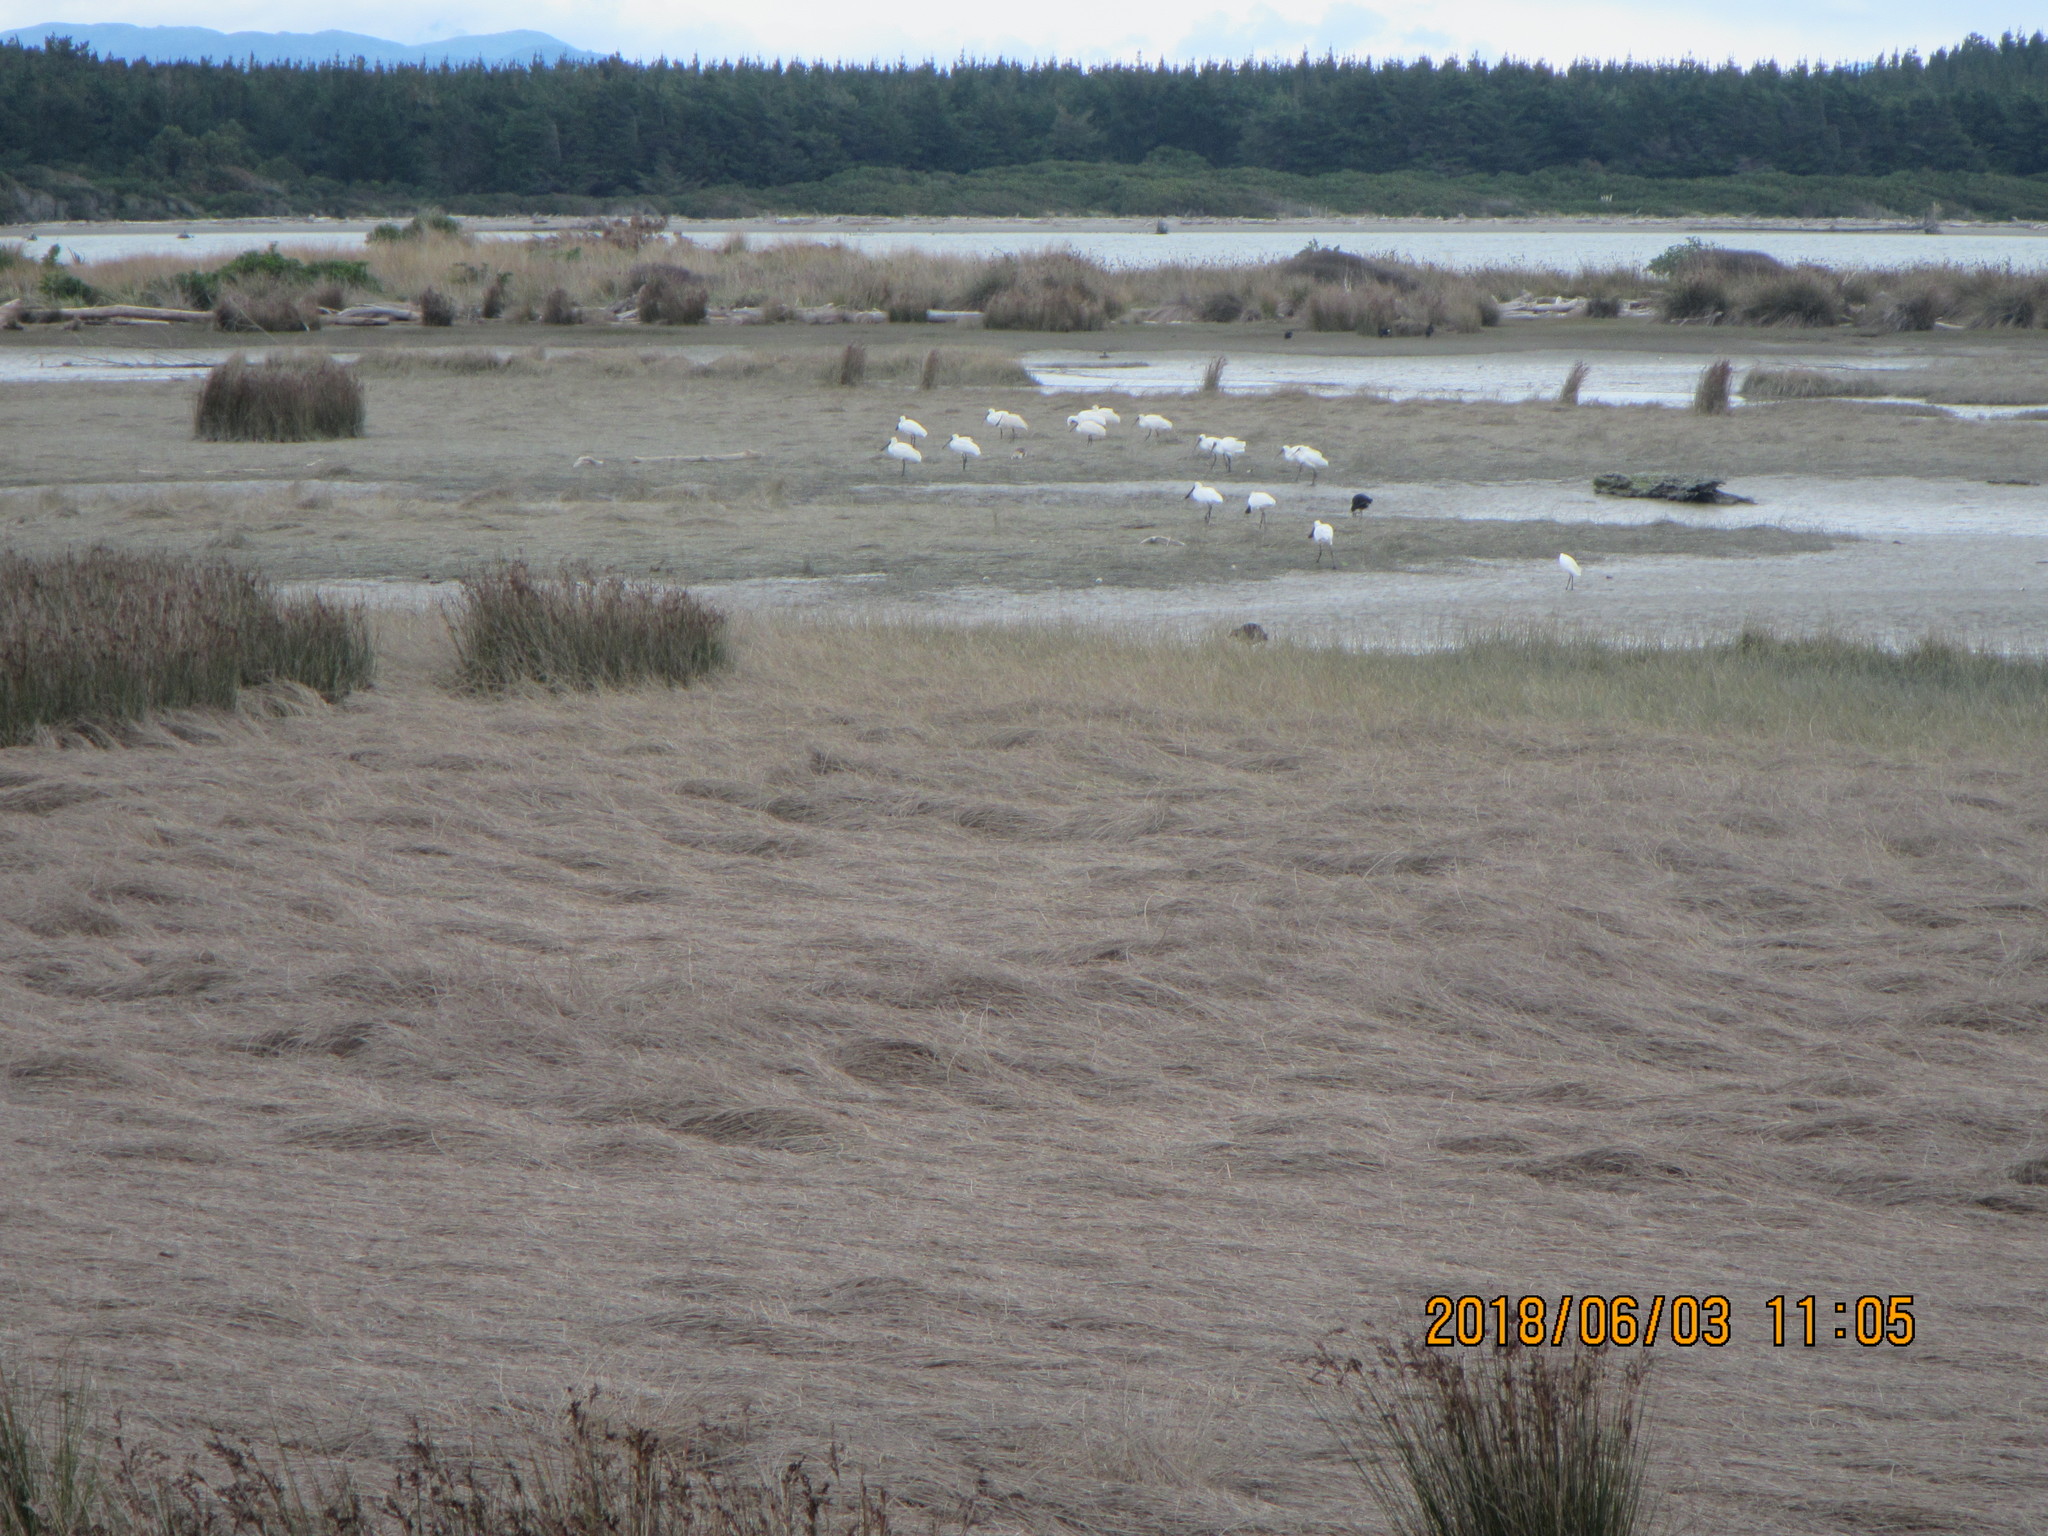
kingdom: Animalia
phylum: Chordata
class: Aves
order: Pelecaniformes
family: Threskiornithidae
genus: Platalea
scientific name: Platalea regia
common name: Royal spoonbill
